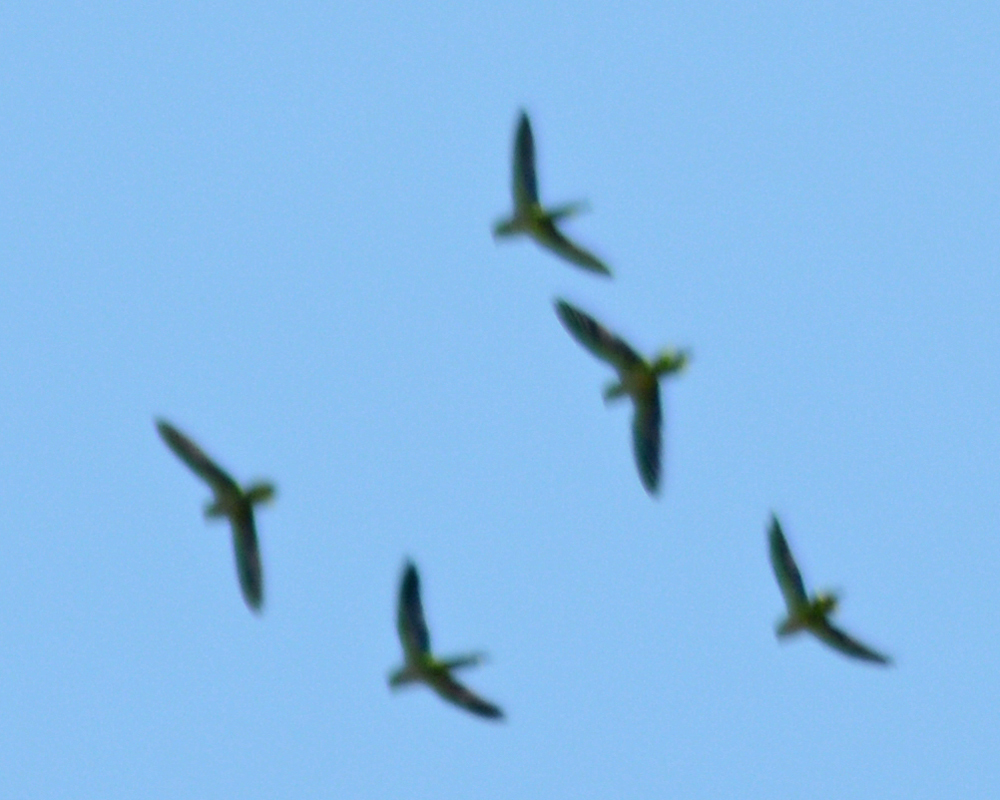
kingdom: Animalia
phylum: Chordata
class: Aves
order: Psittaciformes
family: Psittacidae
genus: Myiopsitta
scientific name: Myiopsitta monachus
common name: Monk parakeet
